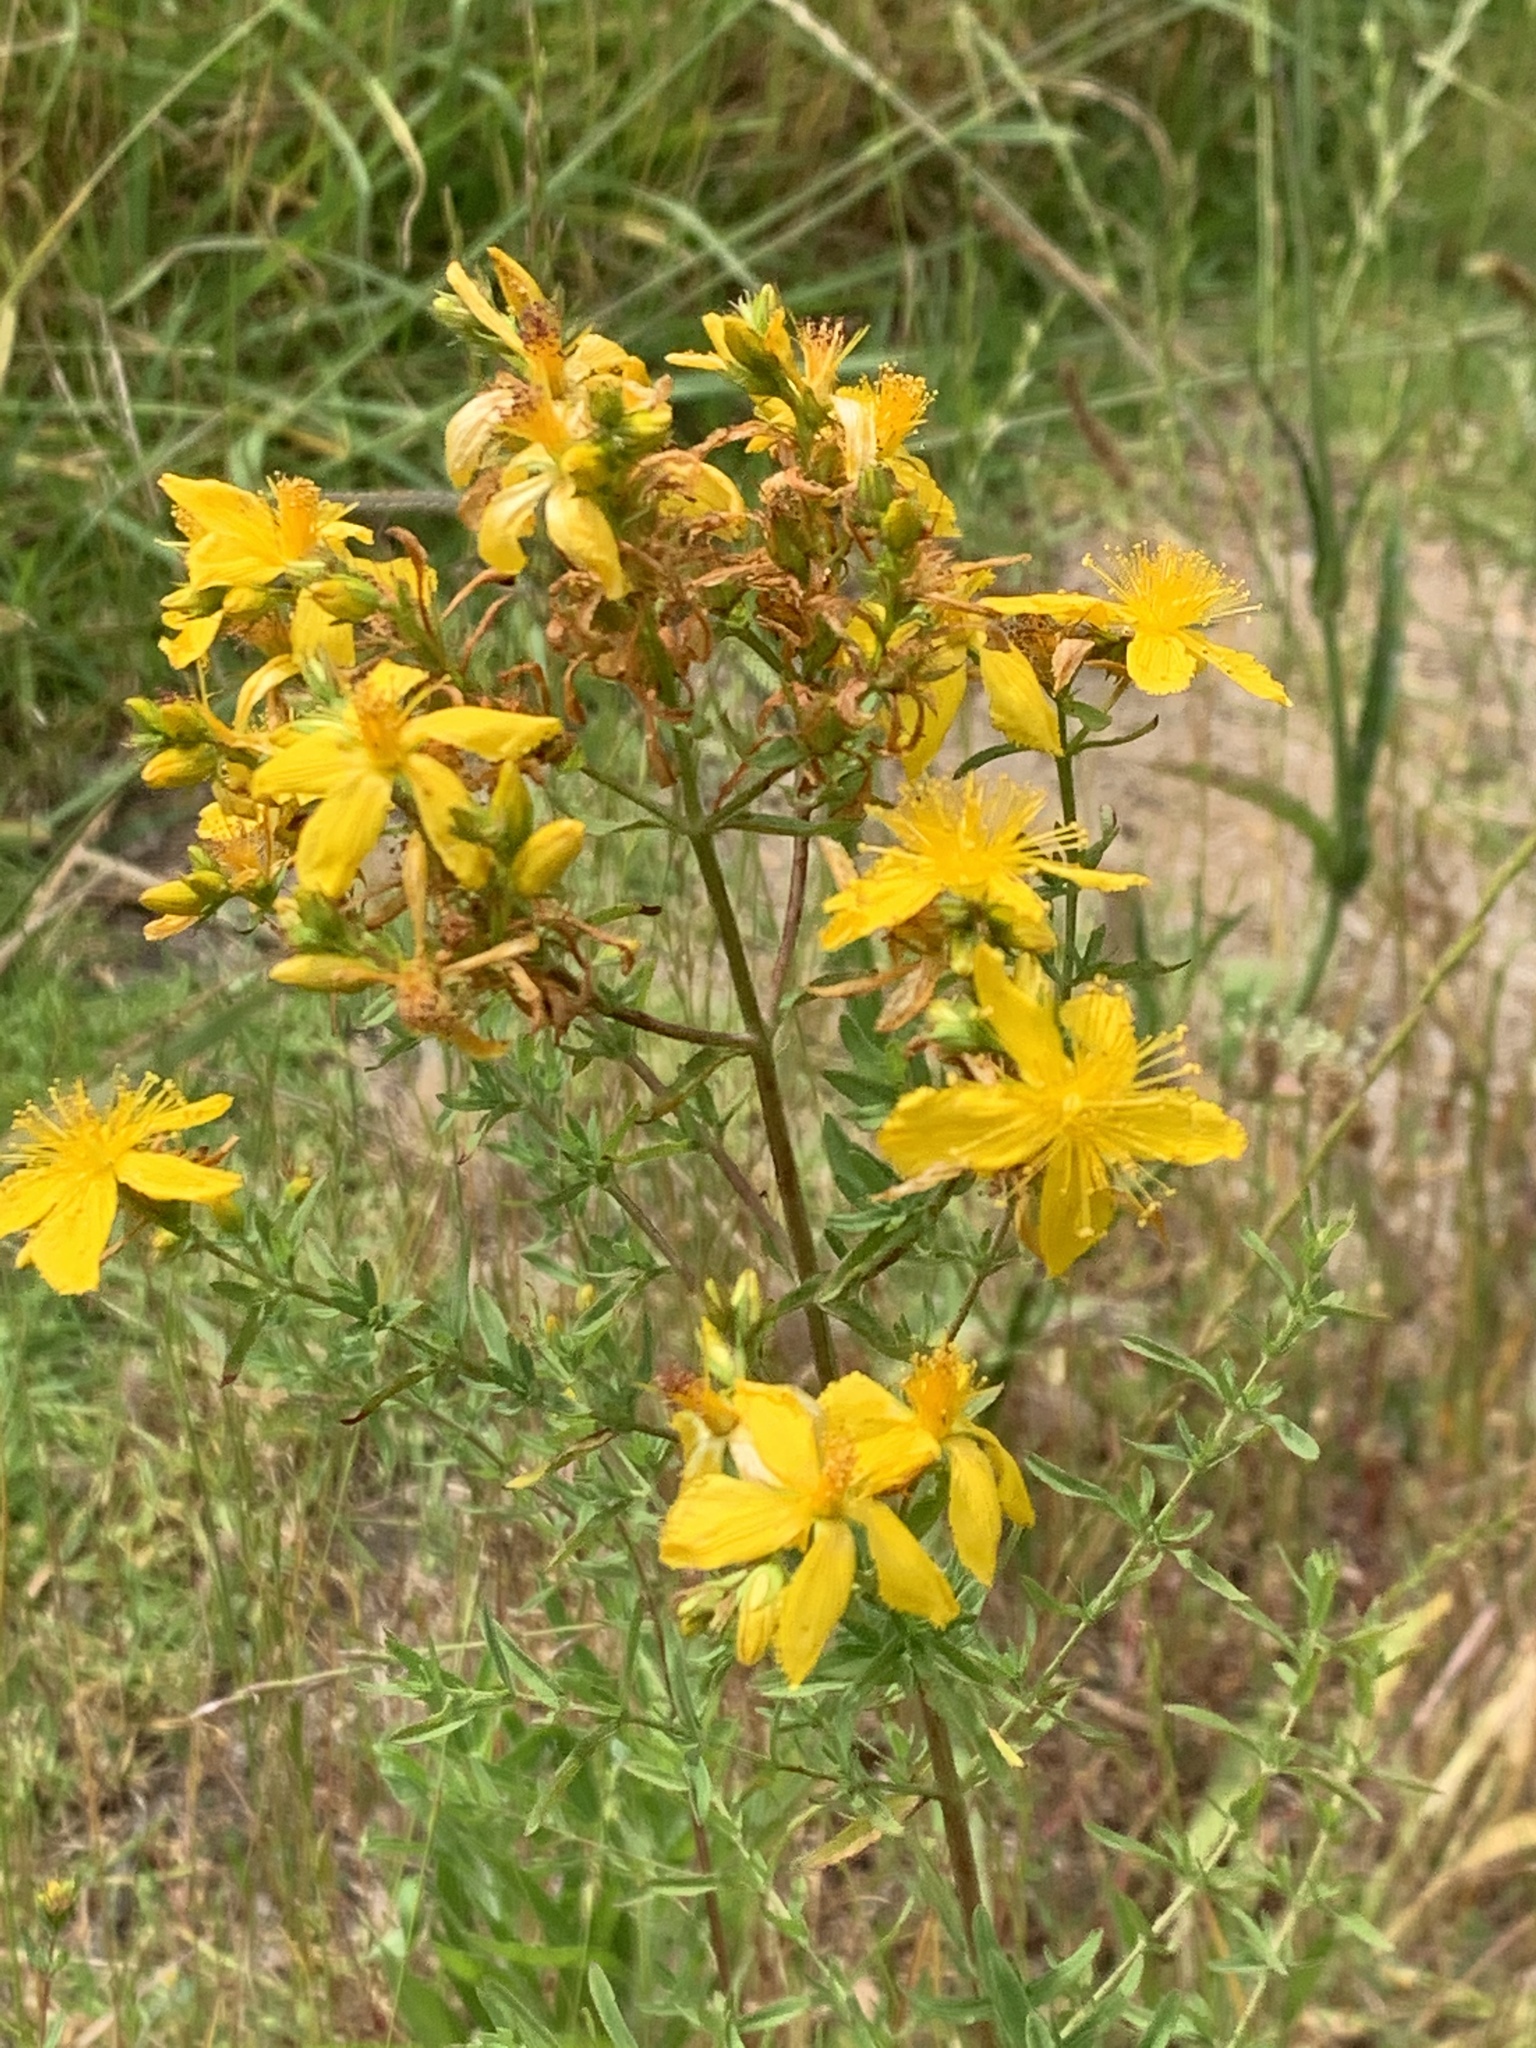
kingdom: Plantae
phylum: Tracheophyta
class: Magnoliopsida
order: Malpighiales
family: Hypericaceae
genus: Hypericum
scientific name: Hypericum perforatum
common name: Common st. johnswort
